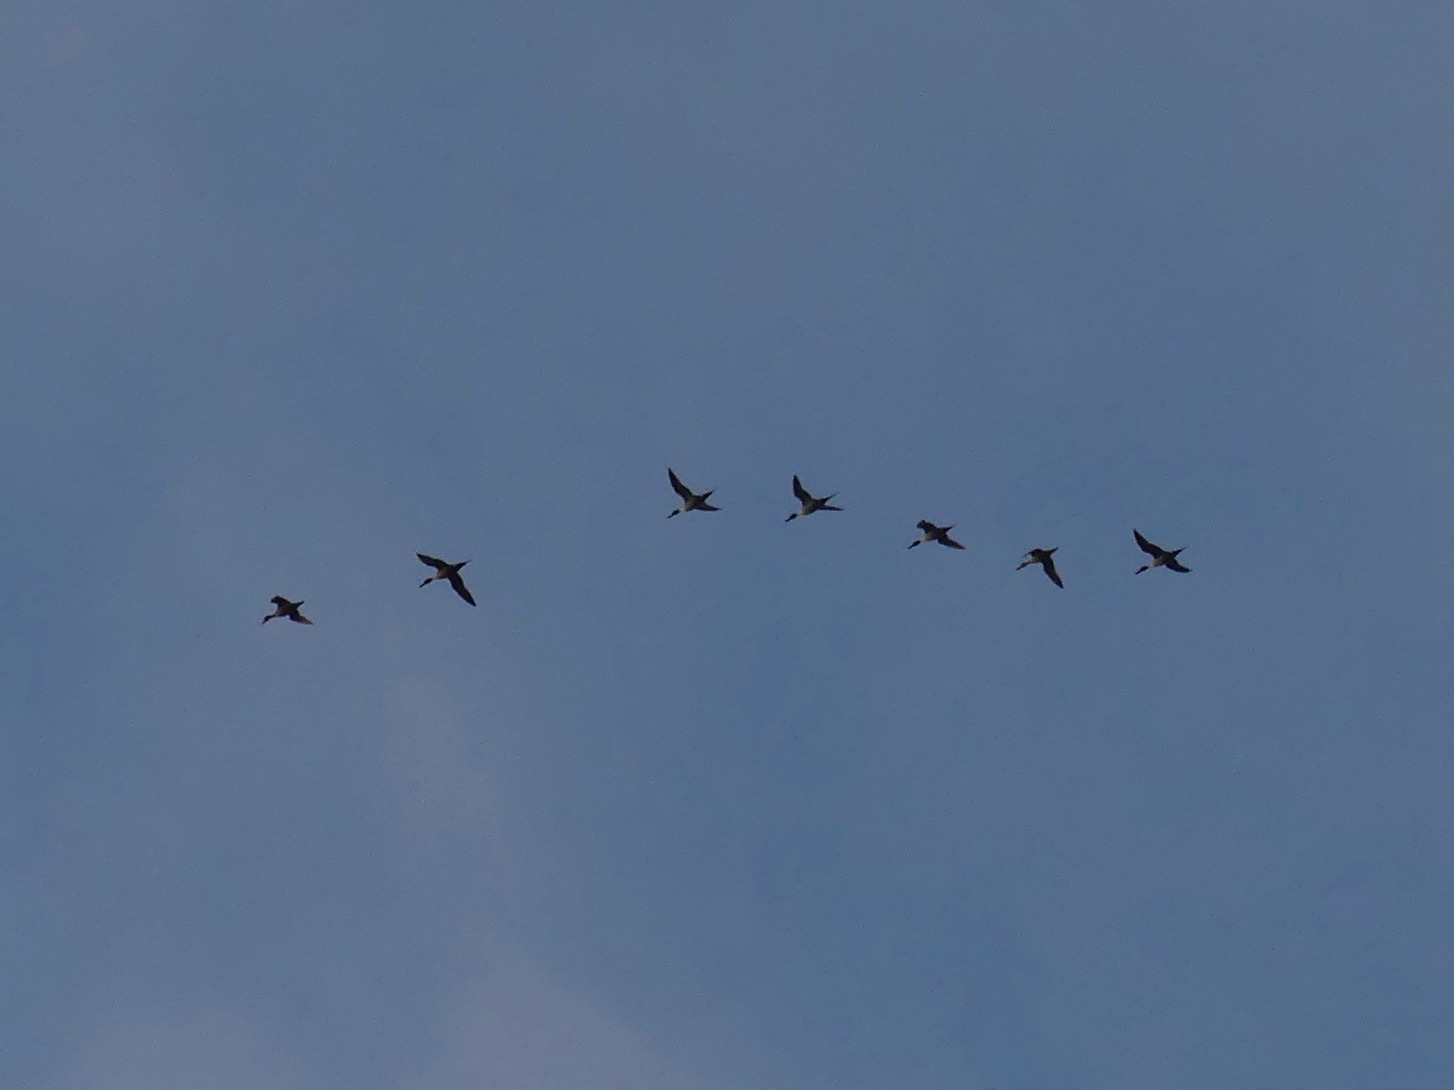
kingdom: Animalia
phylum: Chordata
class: Aves
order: Anseriformes
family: Anatidae
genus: Anas
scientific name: Anas acuta
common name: Northern pintail
